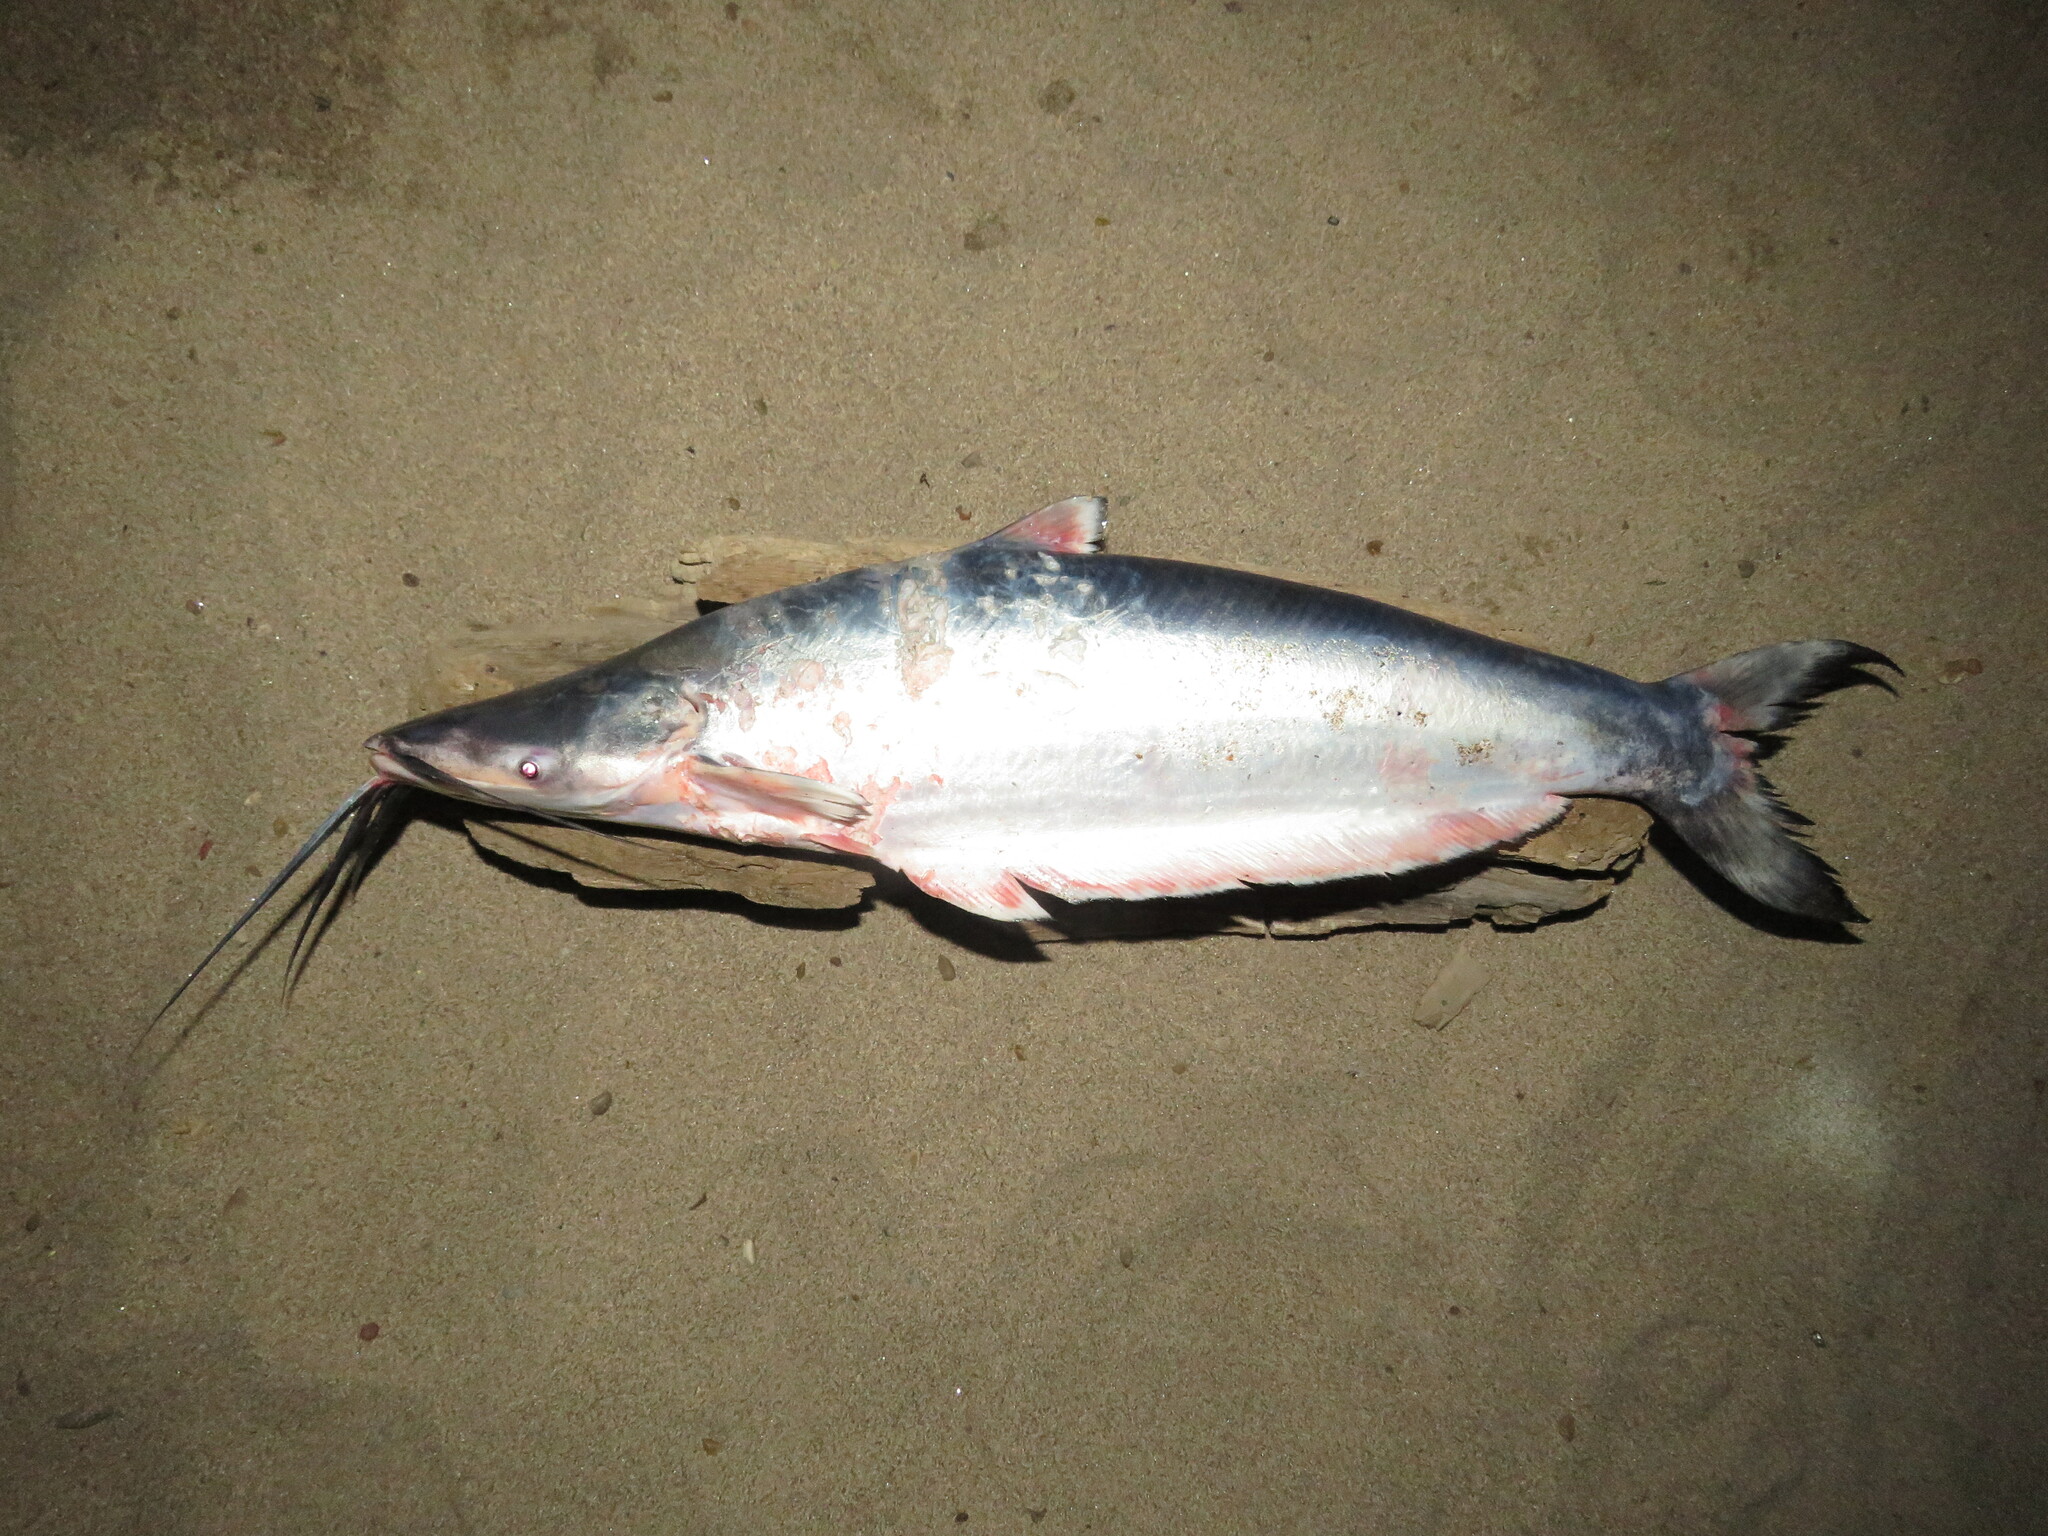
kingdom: Animalia
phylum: Chordata
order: Siluriformes
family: Pimelodidae
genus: Hypophthalmus
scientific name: Hypophthalmus marginatus
